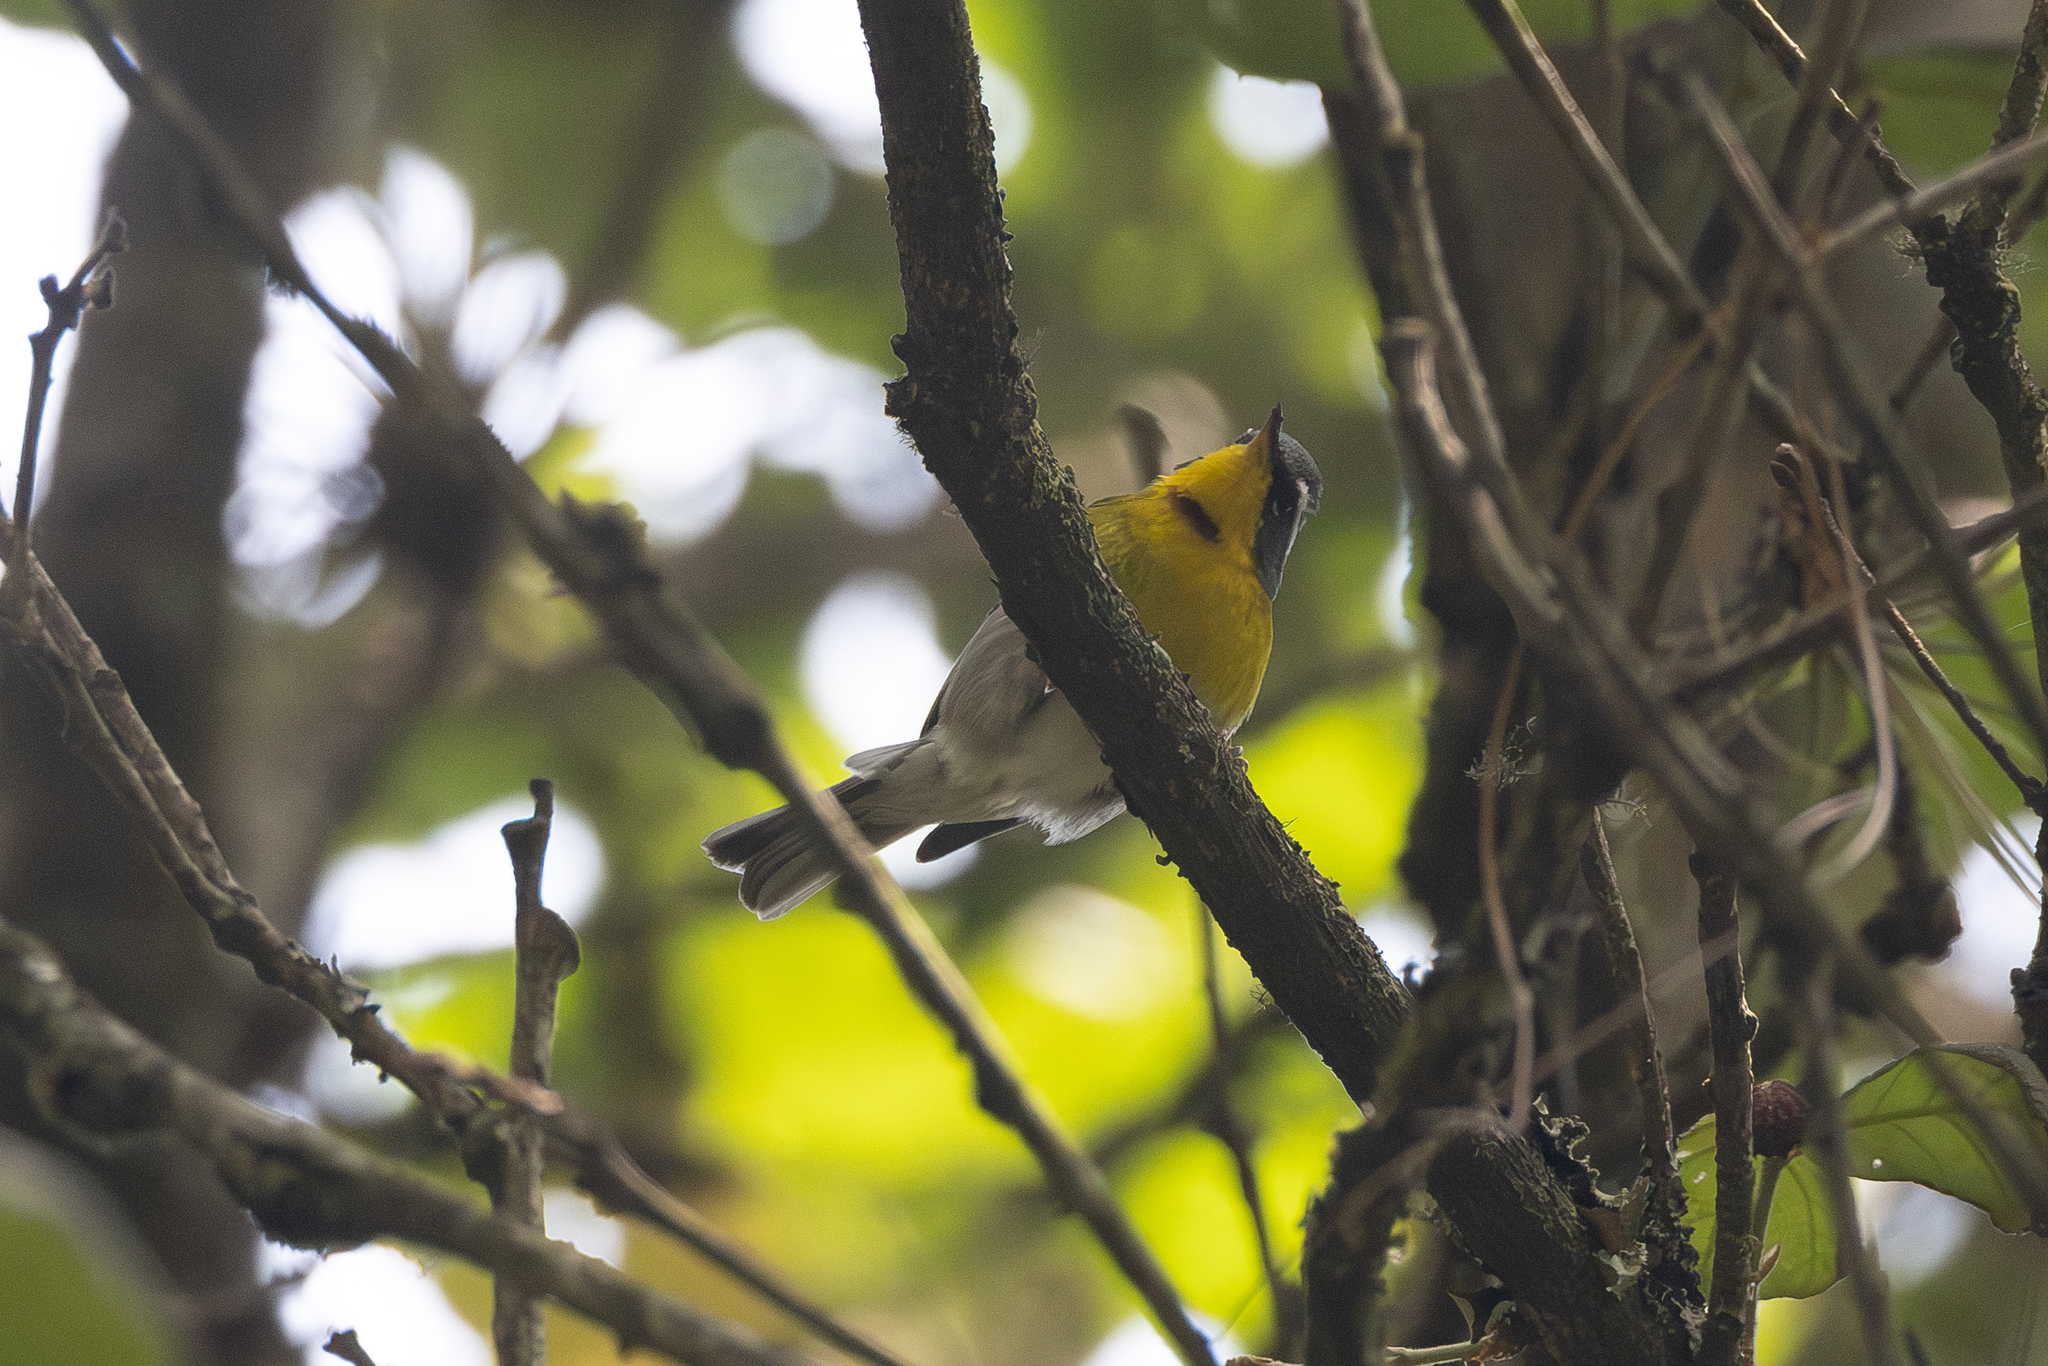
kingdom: Animalia
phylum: Chordata
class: Aves
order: Passeriformes
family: Parulidae
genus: Oreothlypis
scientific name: Oreothlypis superciliosa
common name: Crescent-chested warbler
